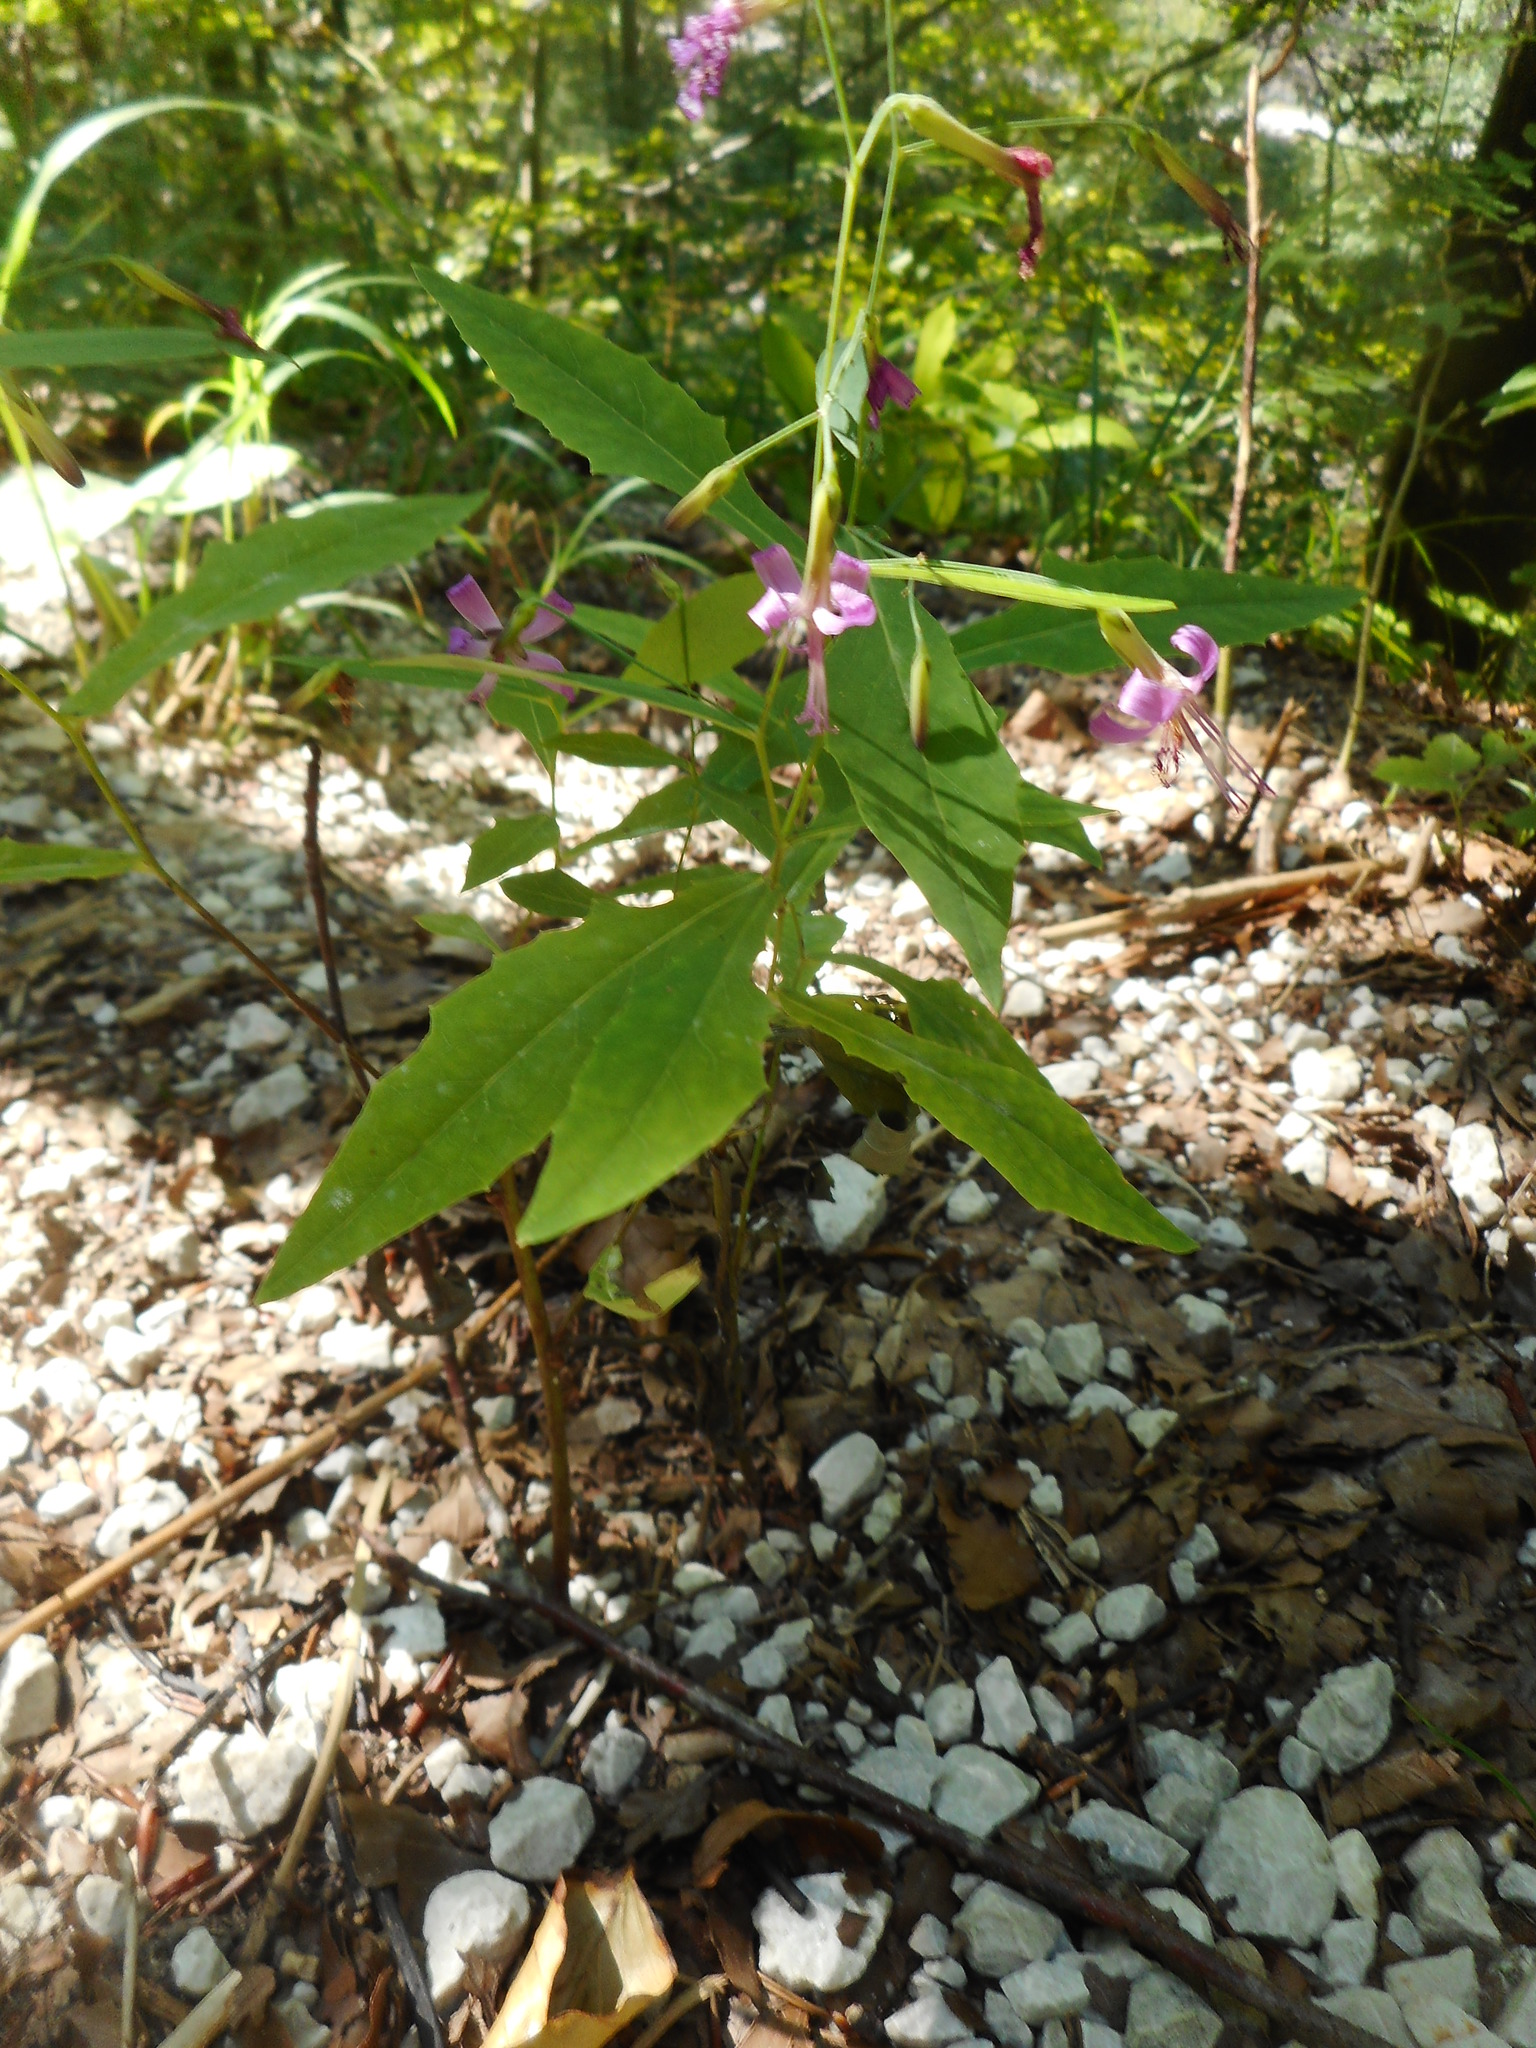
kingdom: Plantae
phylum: Tracheophyta
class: Magnoliopsida
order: Asterales
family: Asteraceae
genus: Prenanthes
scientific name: Prenanthes purpurea
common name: Purple lettuce
